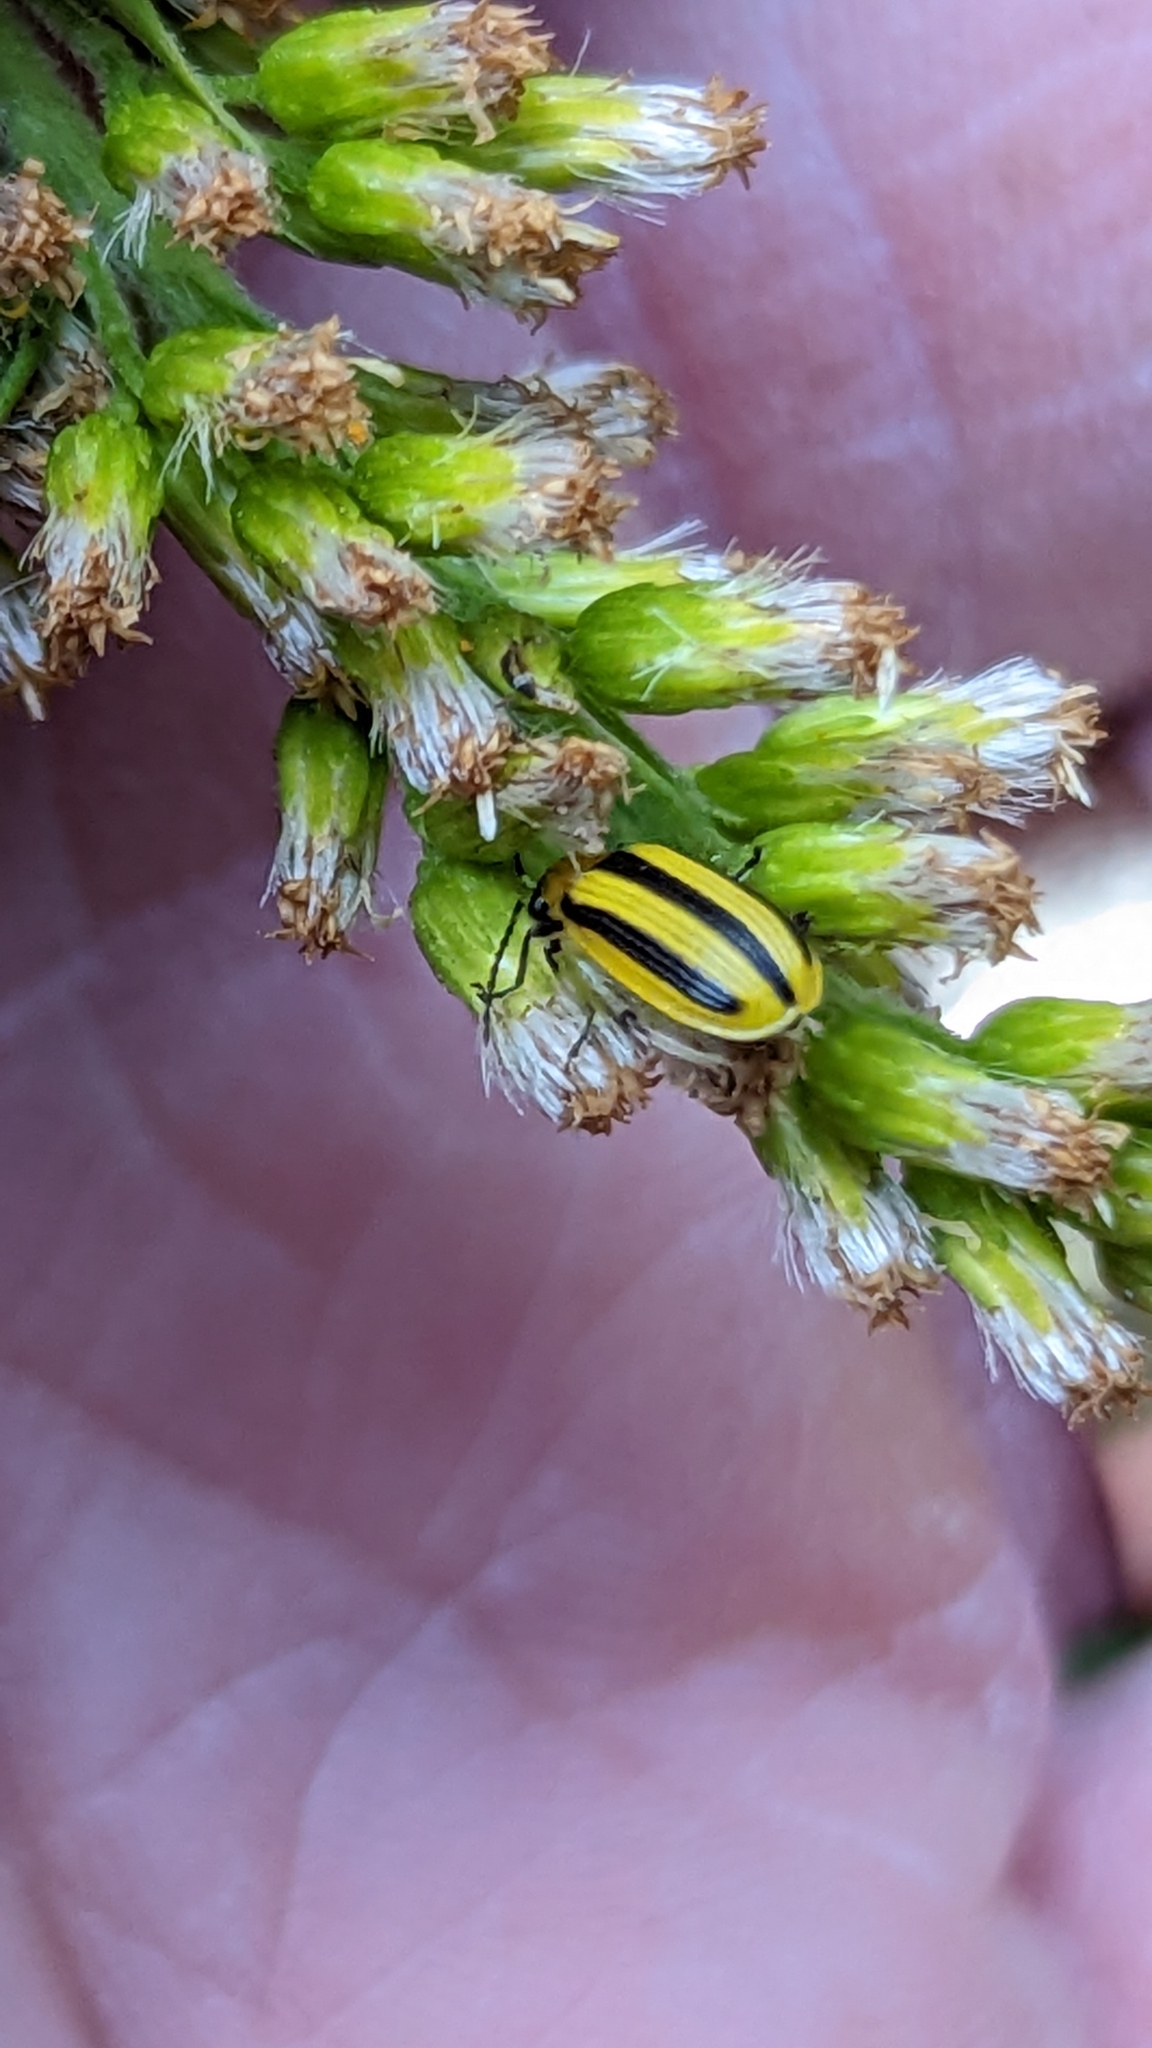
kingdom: Animalia
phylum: Arthropoda
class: Insecta
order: Coleoptera
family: Chrysomelidae
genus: Acalymma
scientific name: Acalymma vittatum
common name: Striped cucumber beetle
